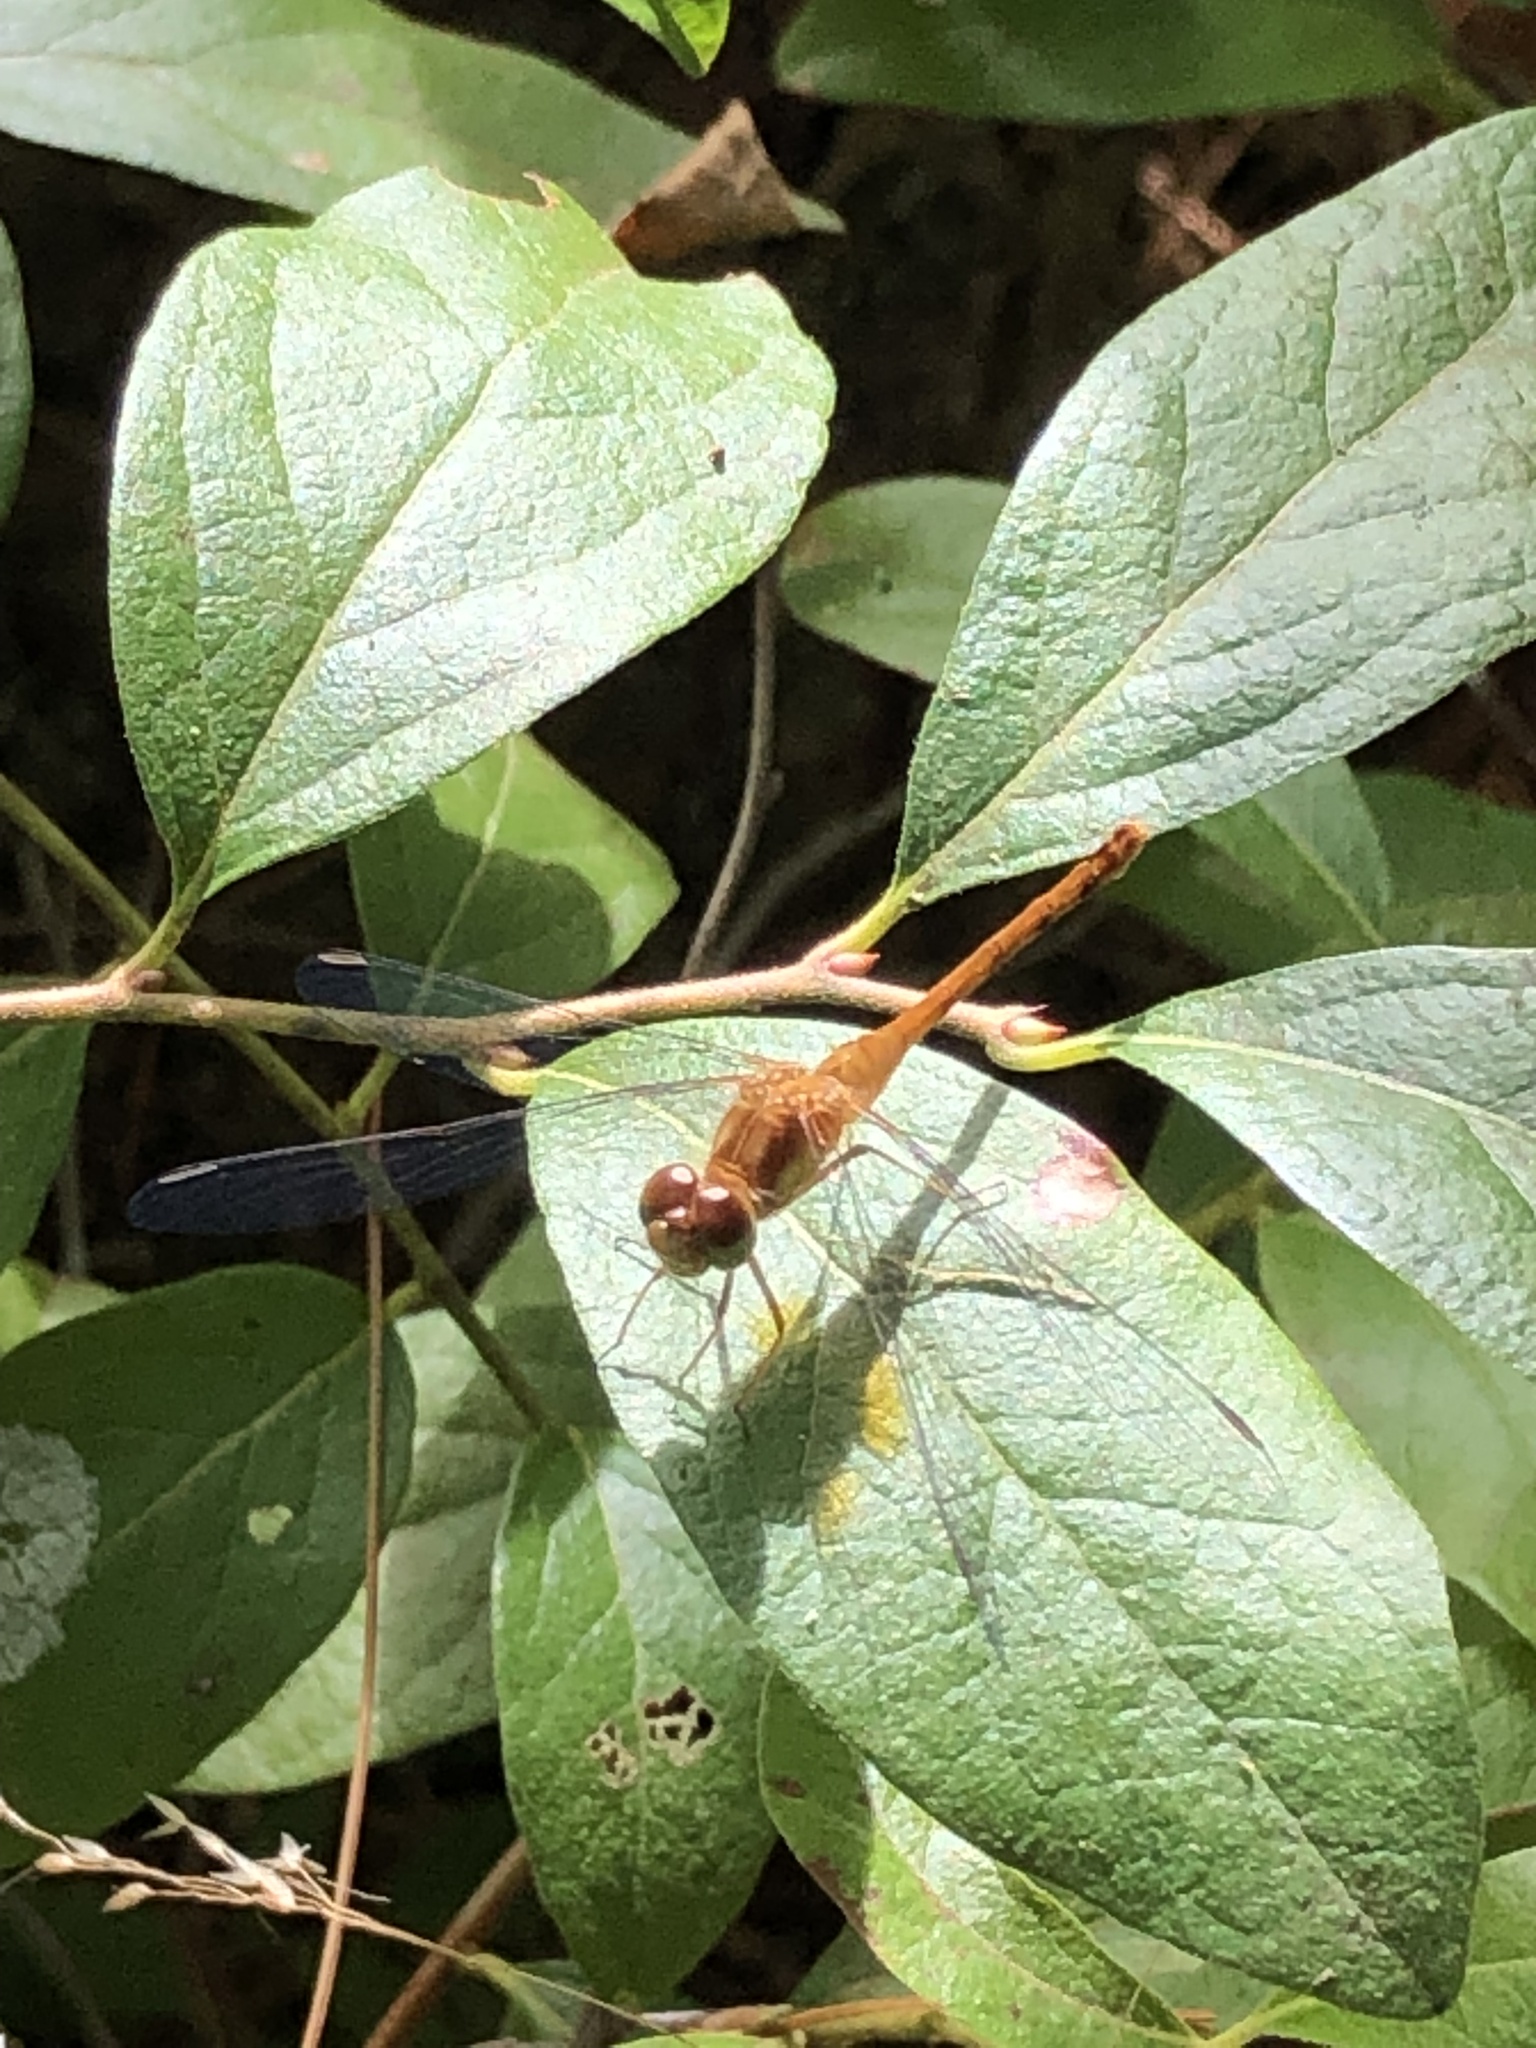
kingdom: Animalia
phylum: Arthropoda
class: Insecta
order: Odonata
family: Libellulidae
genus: Sympetrum
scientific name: Sympetrum vicinum
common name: Autumn meadowhawk
